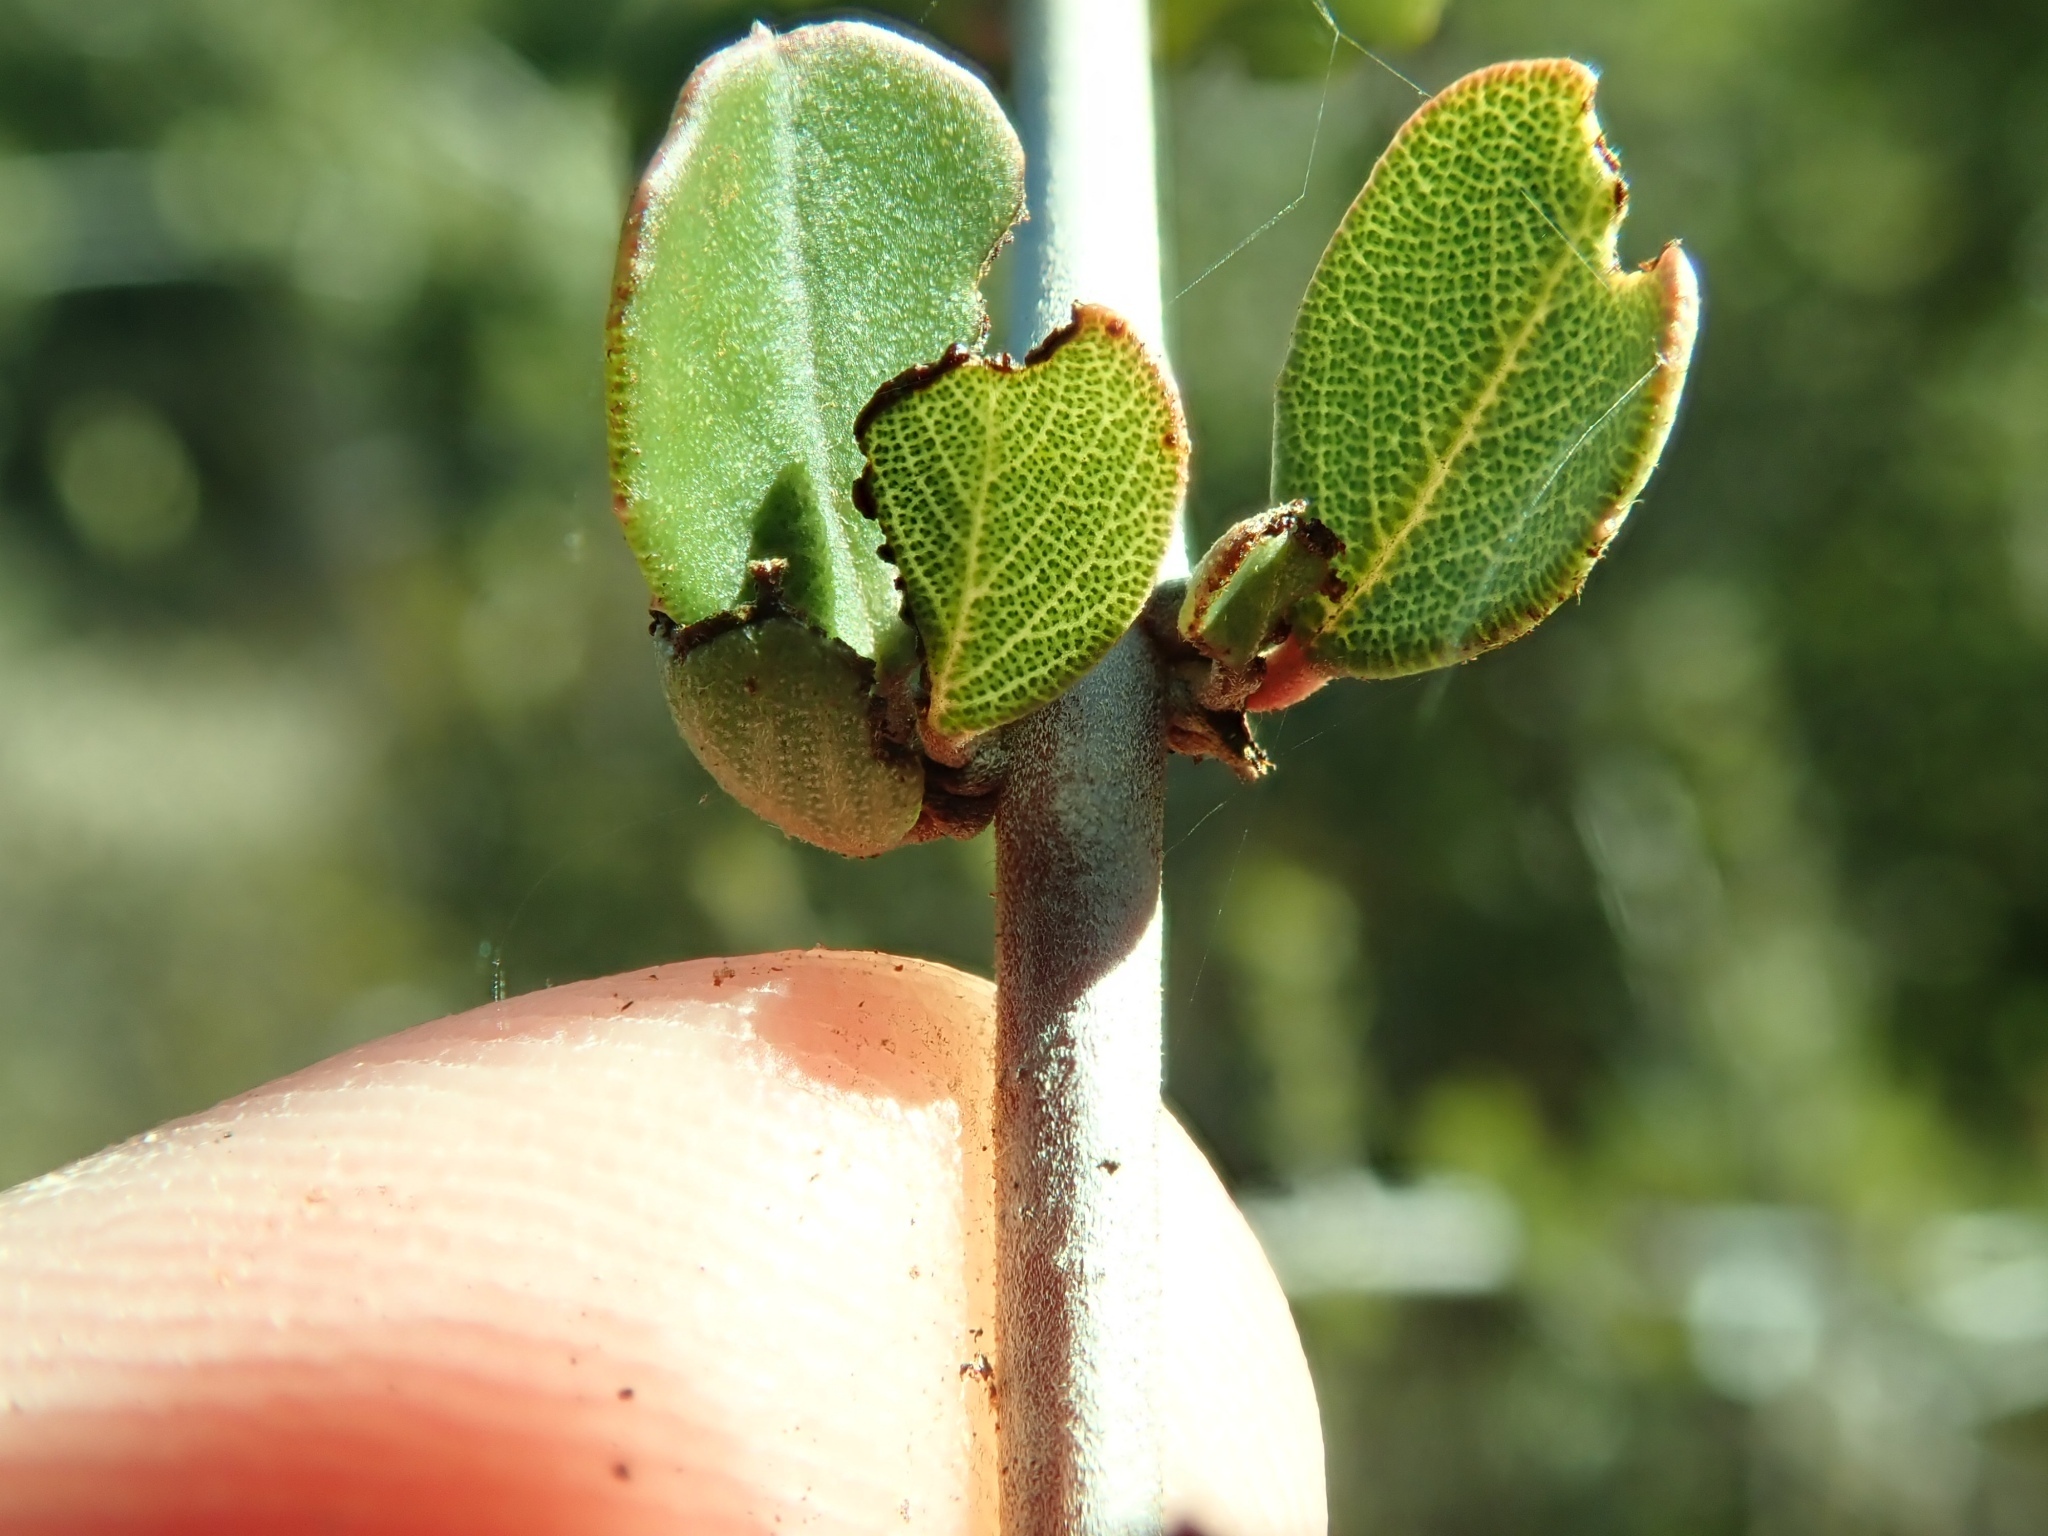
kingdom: Plantae
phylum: Tracheophyta
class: Magnoliopsida
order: Rosales
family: Rhamnaceae
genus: Ceanothus
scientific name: Ceanothus cuneatus
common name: Cuneate ceanothus
